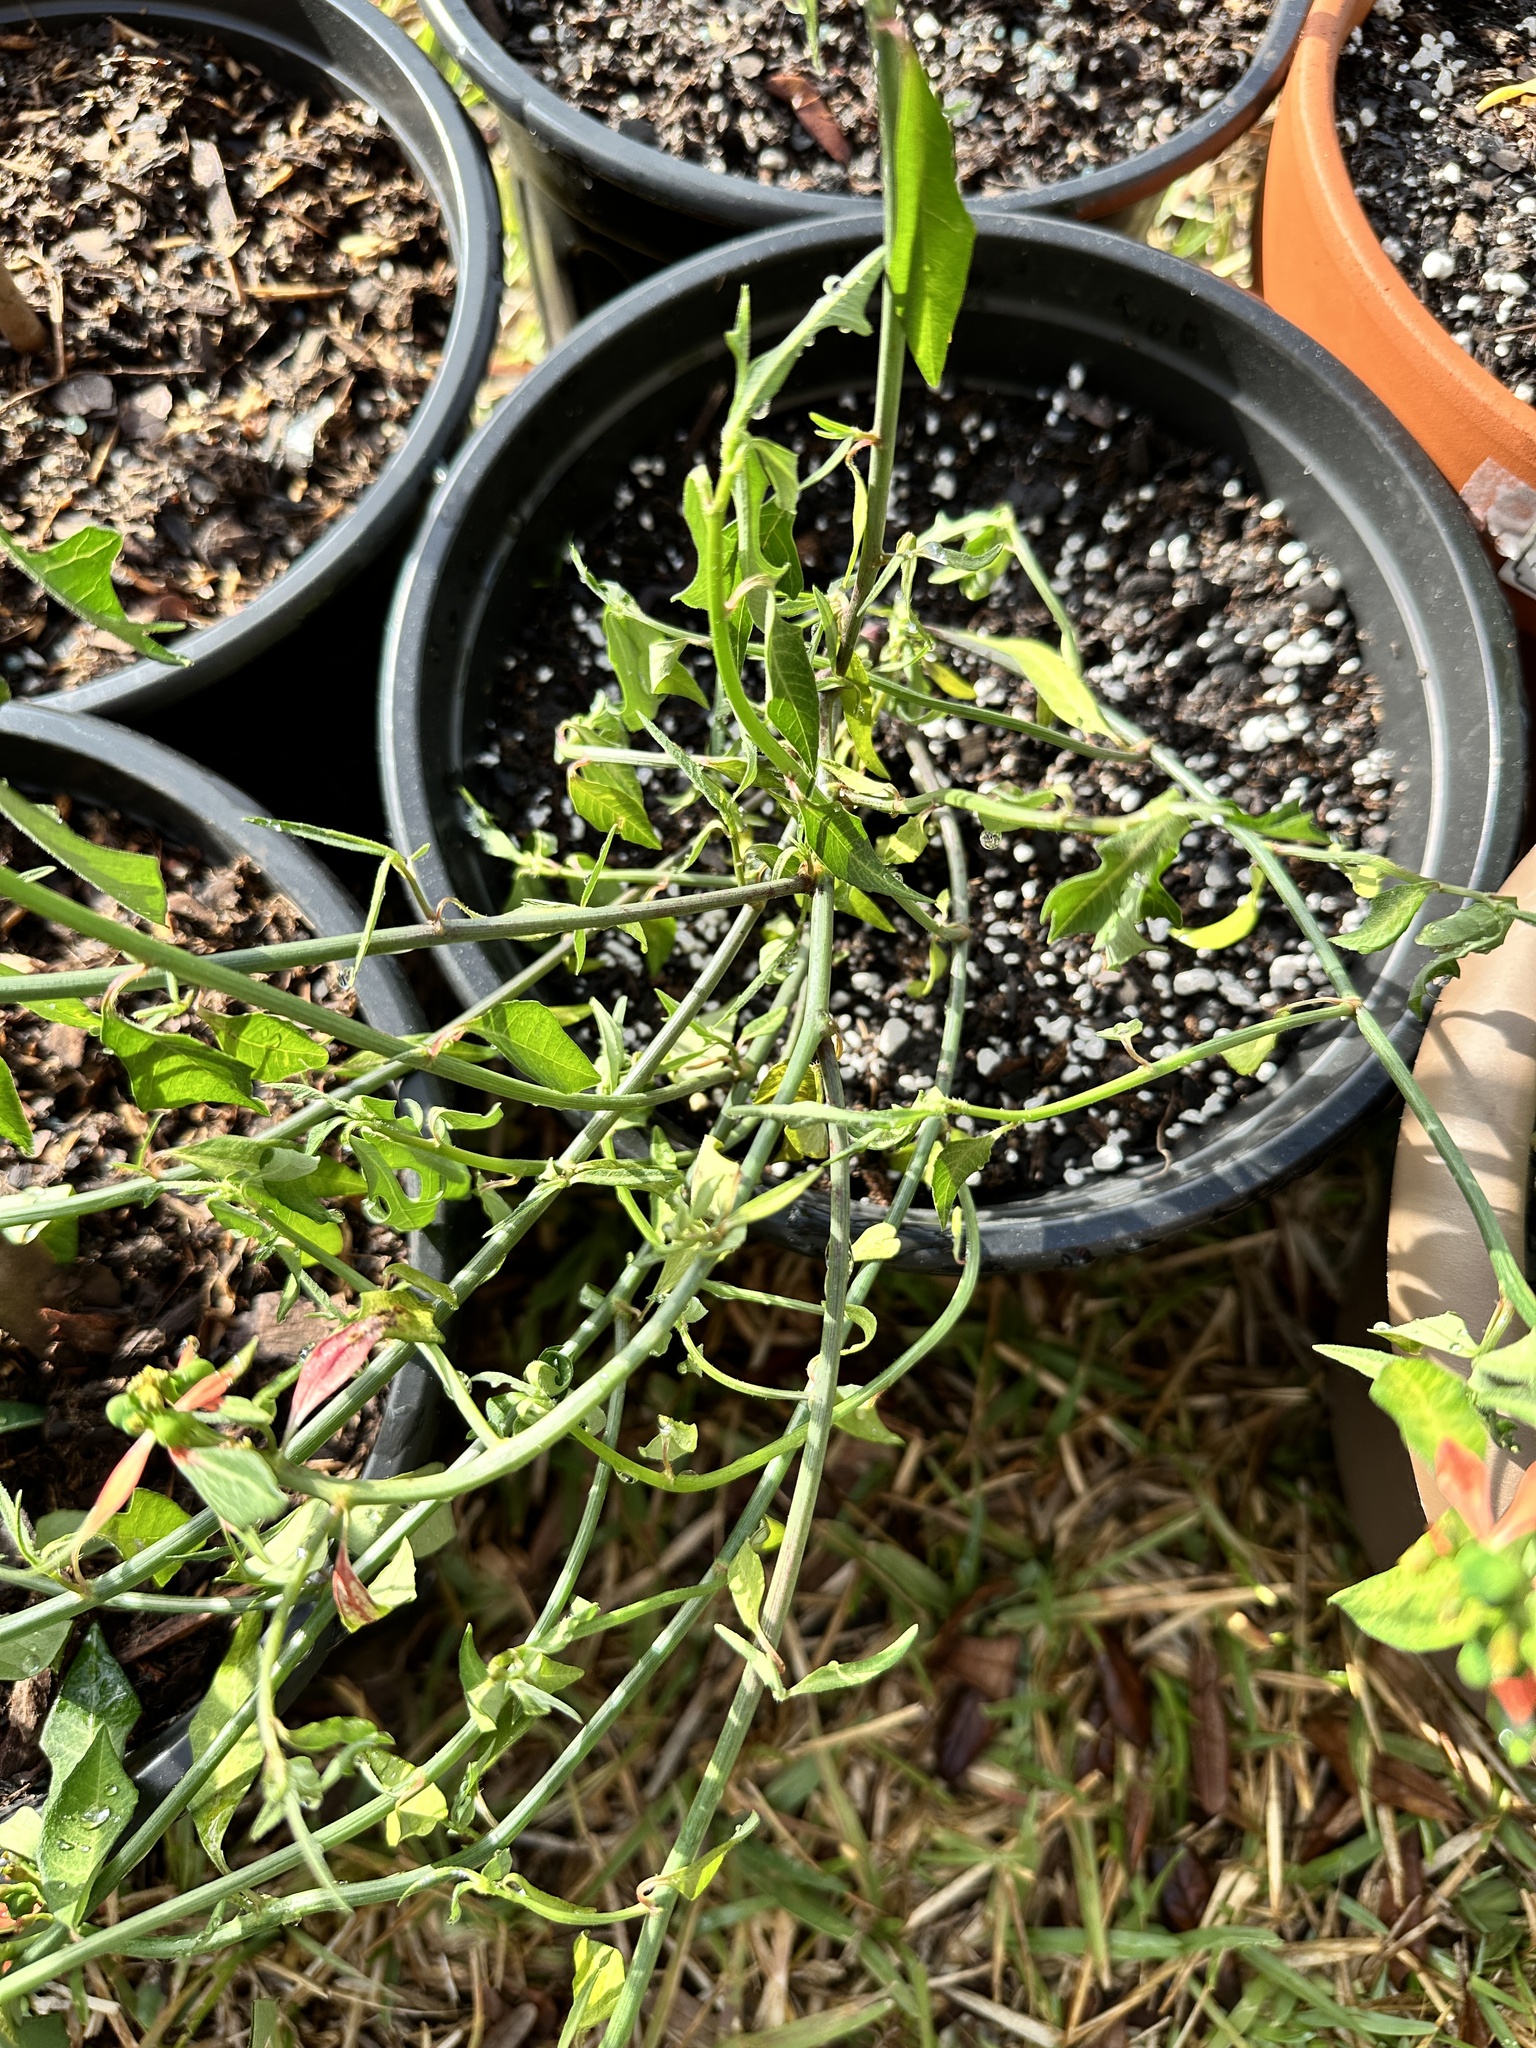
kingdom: Plantae
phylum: Tracheophyta
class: Magnoliopsida
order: Malpighiales
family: Euphorbiaceae
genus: Euphorbia
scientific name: Euphorbia heterophylla
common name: Mexican fireplant
